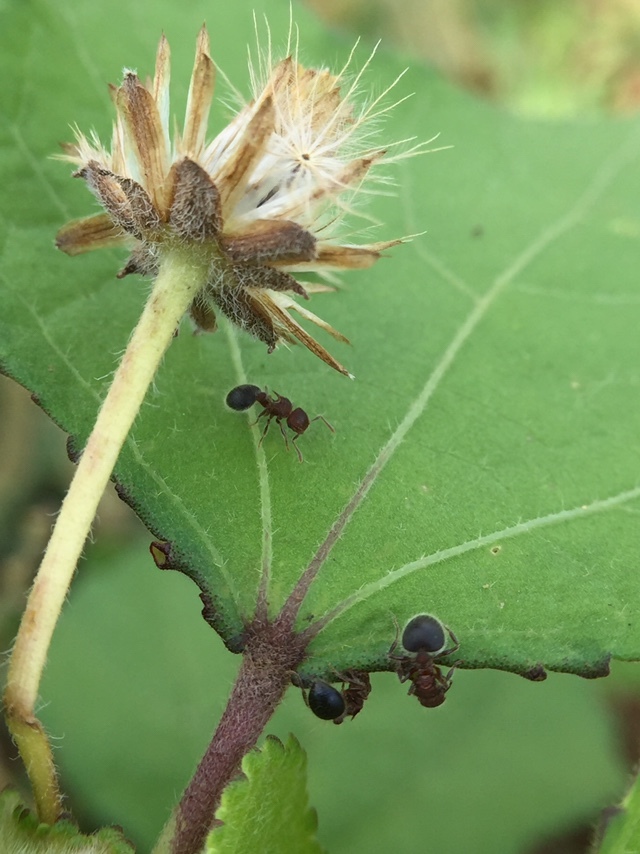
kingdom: Animalia
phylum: Arthropoda
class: Insecta
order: Hymenoptera
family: Formicidae
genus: Meranoplus
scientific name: Meranoplus bicolor
